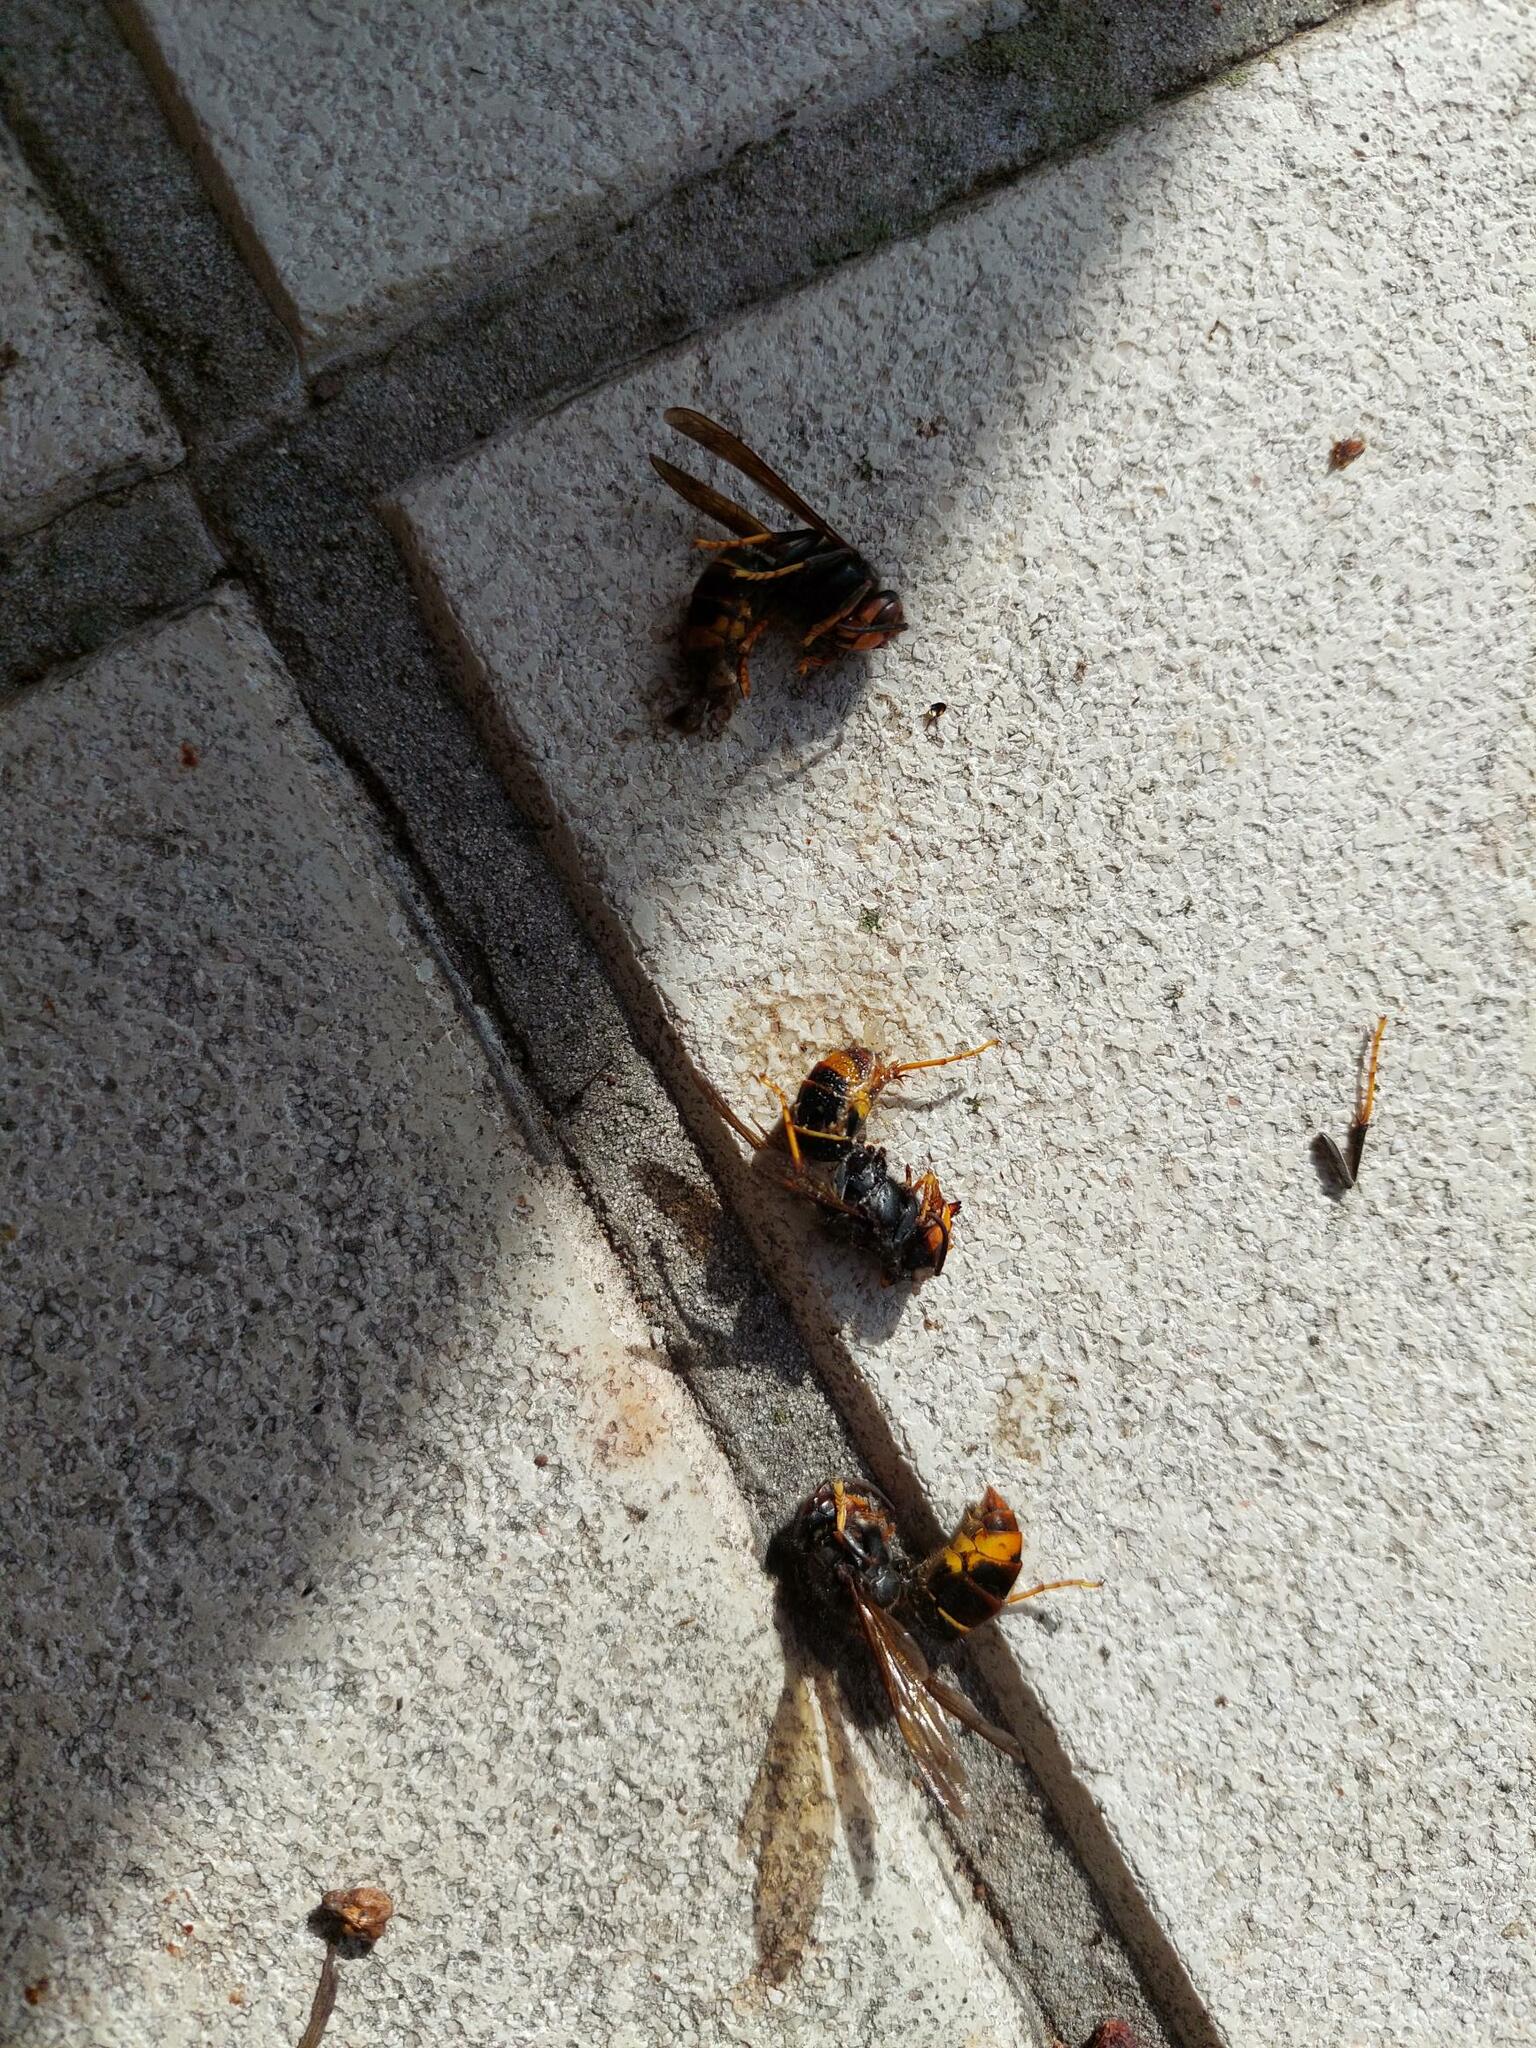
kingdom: Animalia
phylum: Arthropoda
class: Insecta
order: Hymenoptera
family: Vespidae
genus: Vespa
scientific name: Vespa velutina
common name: Asian hornet
